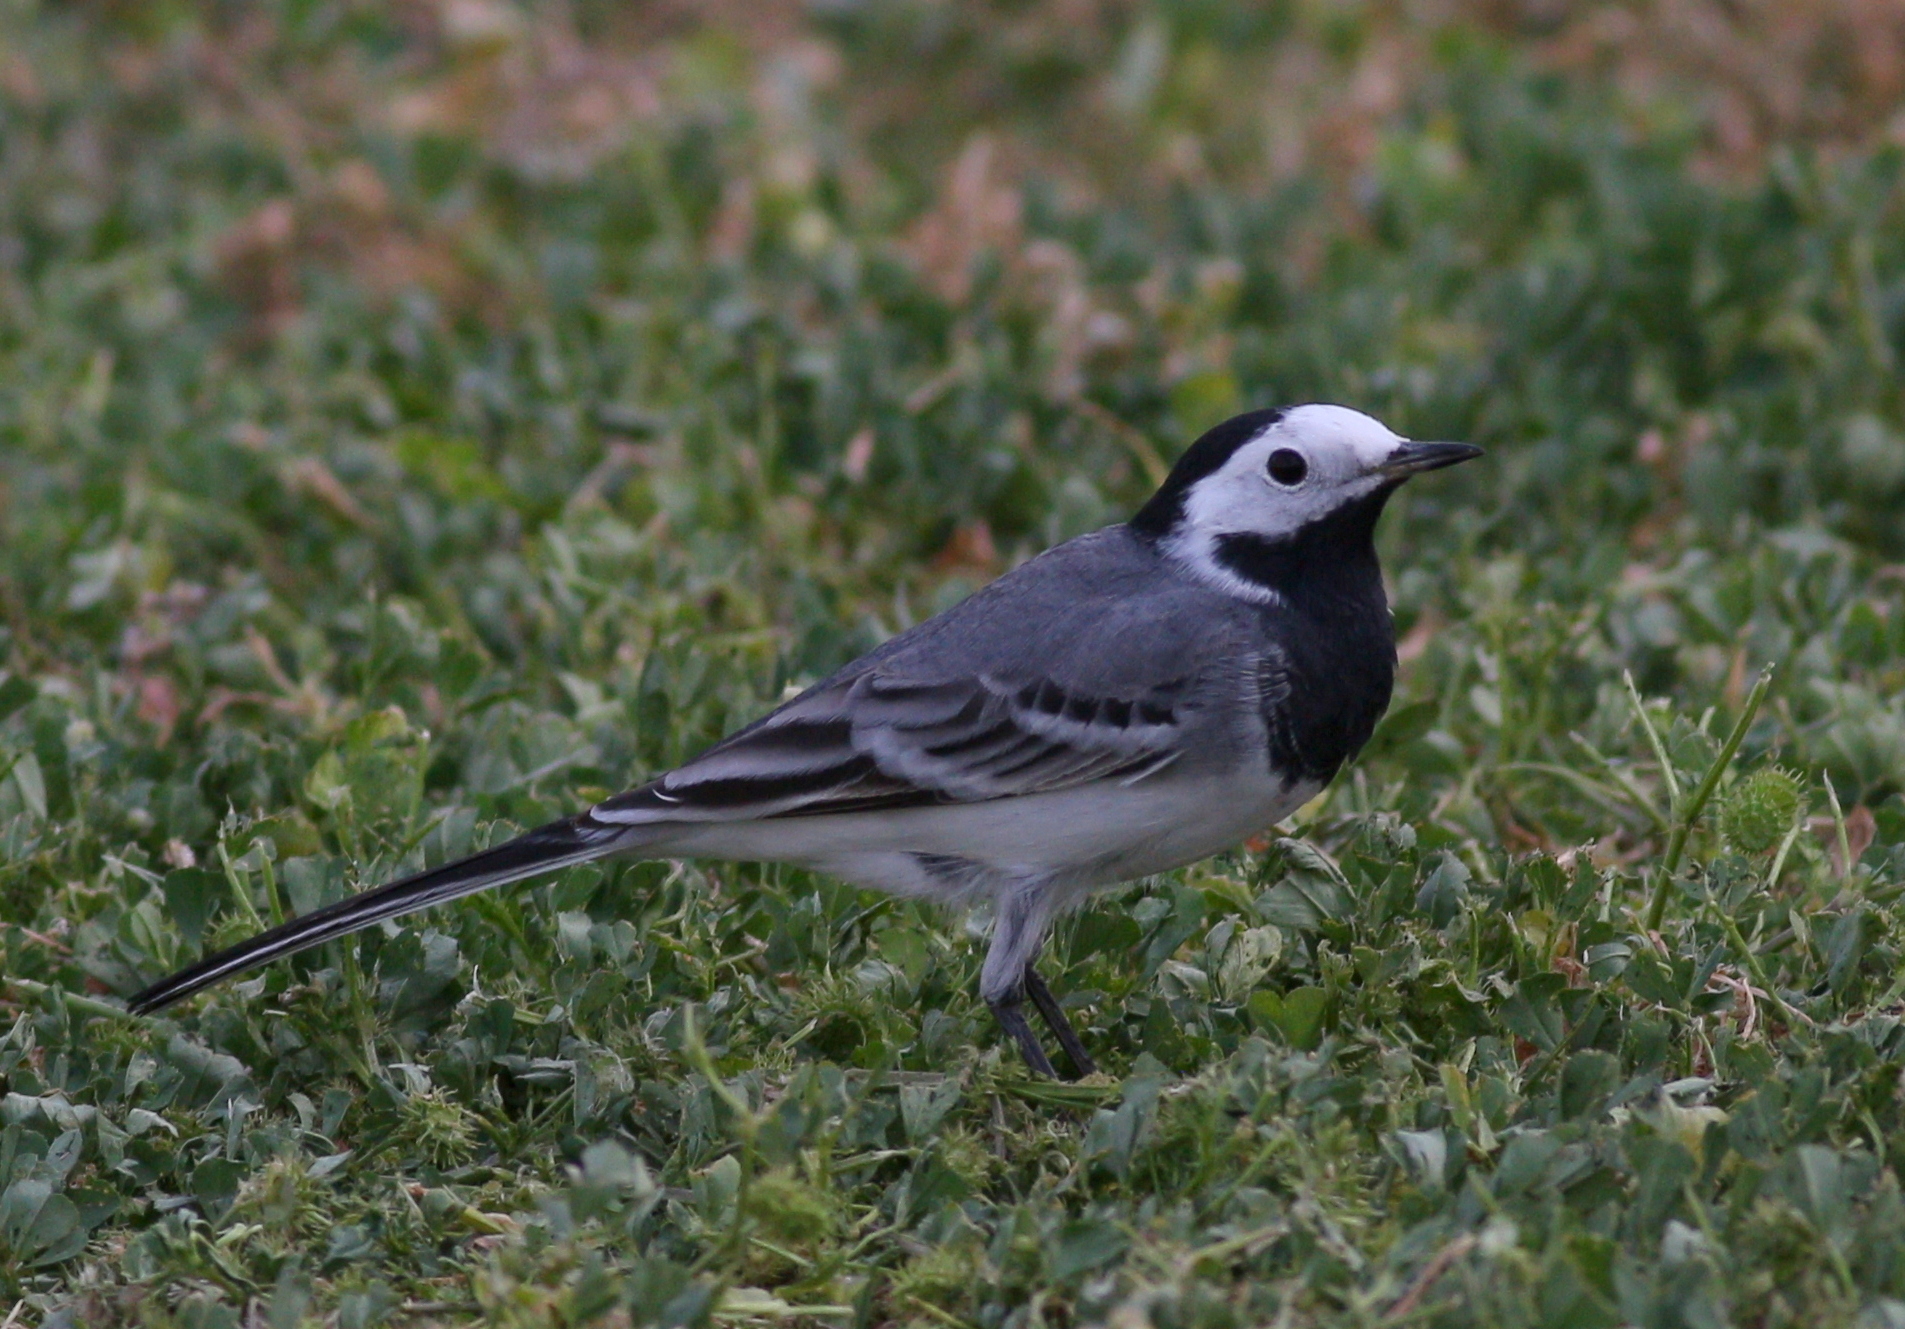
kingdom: Animalia
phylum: Chordata
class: Aves
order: Passeriformes
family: Motacillidae
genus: Motacilla
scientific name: Motacilla alba
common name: White wagtail
